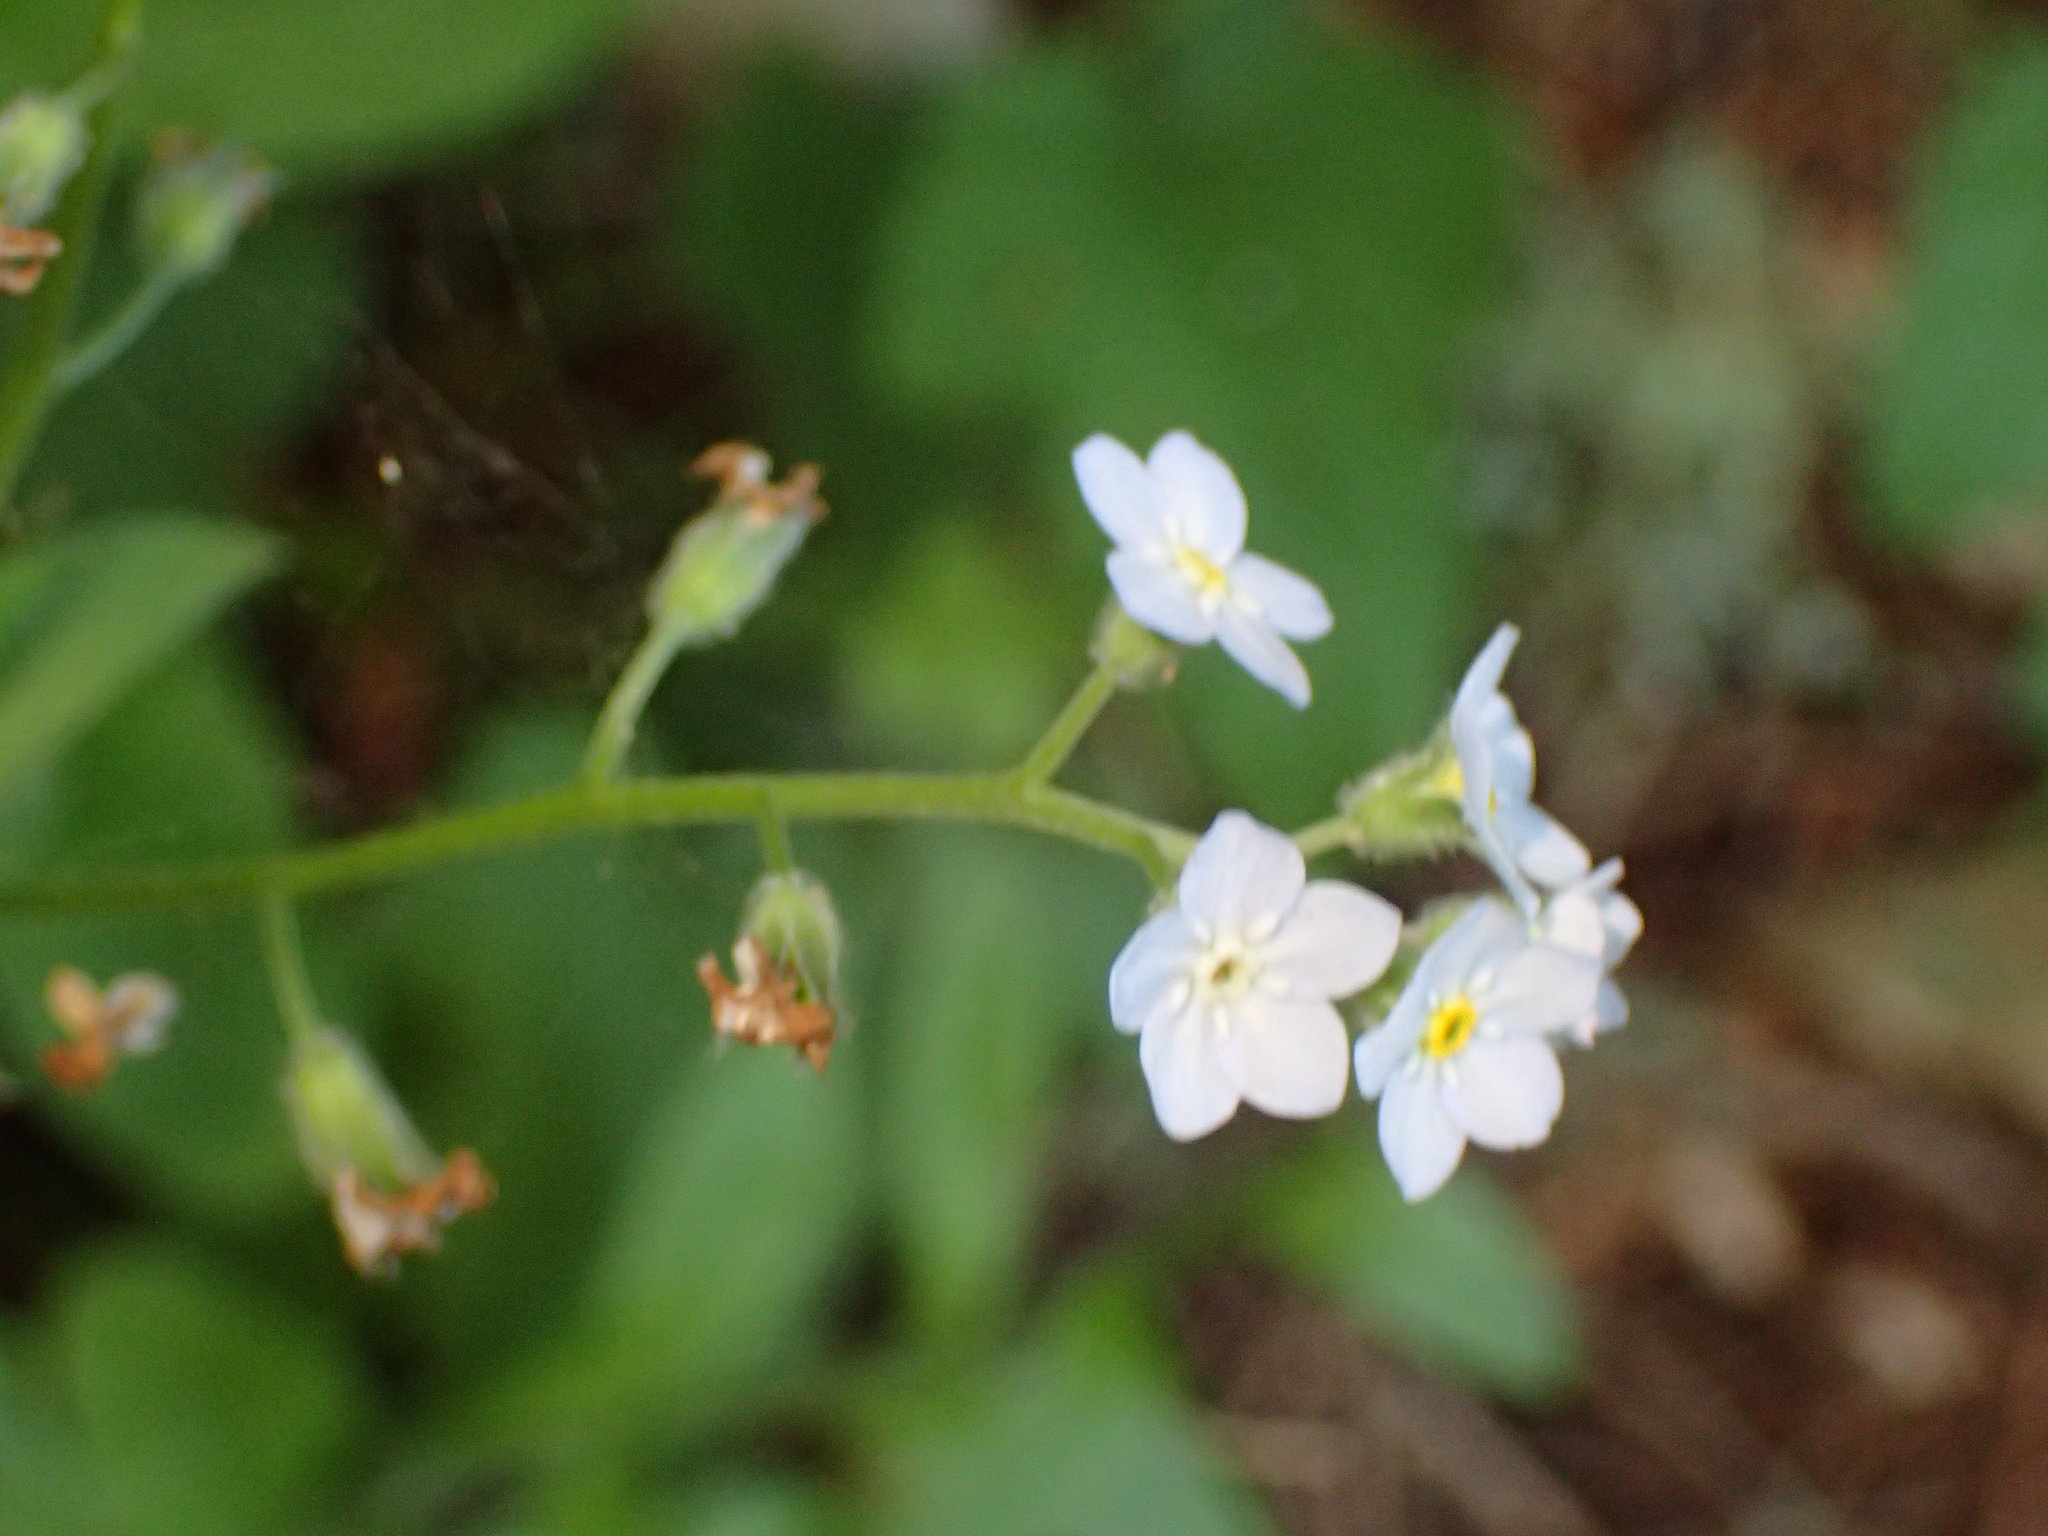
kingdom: Plantae
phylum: Tracheophyta
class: Magnoliopsida
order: Boraginales
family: Boraginaceae
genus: Myosotis
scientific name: Myosotis latifolia
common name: Broadleaf forget-me-not
